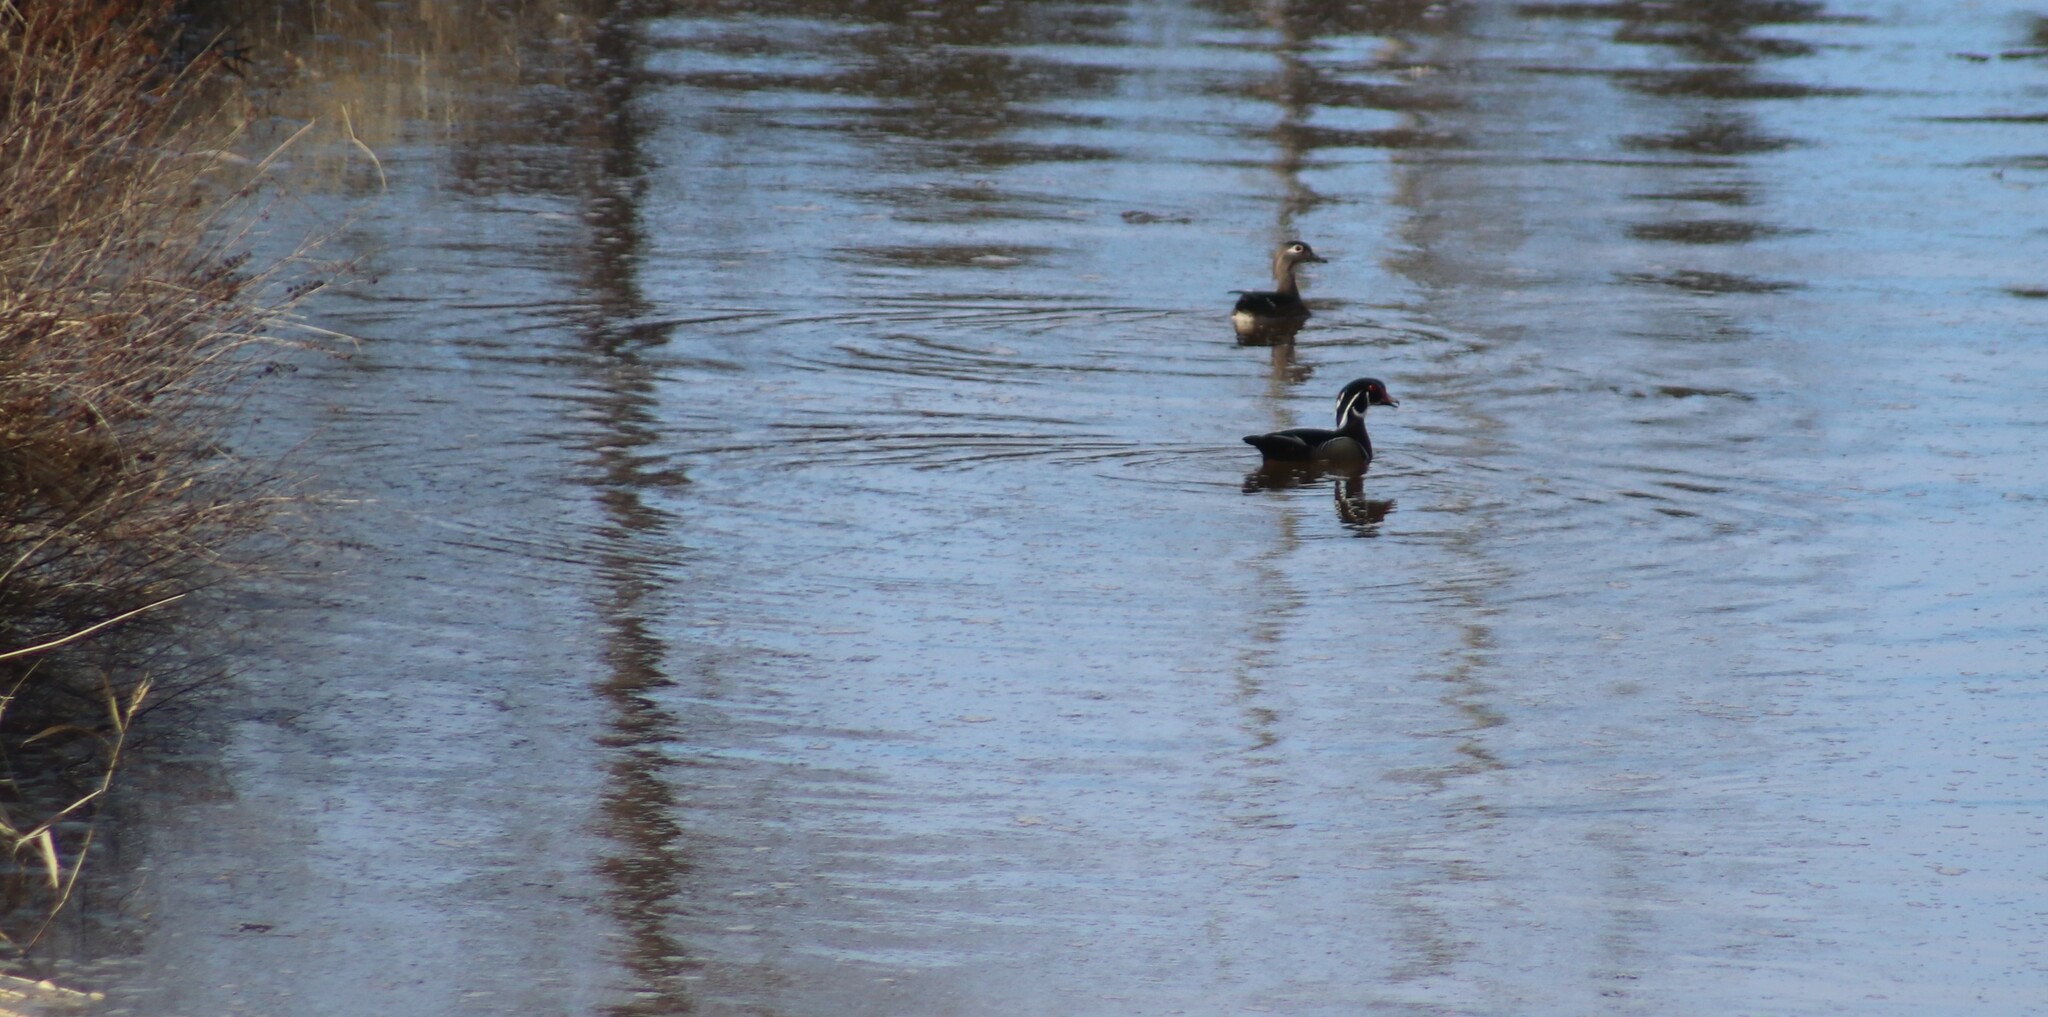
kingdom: Animalia
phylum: Chordata
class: Aves
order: Anseriformes
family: Anatidae
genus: Aix
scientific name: Aix sponsa
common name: Wood duck
